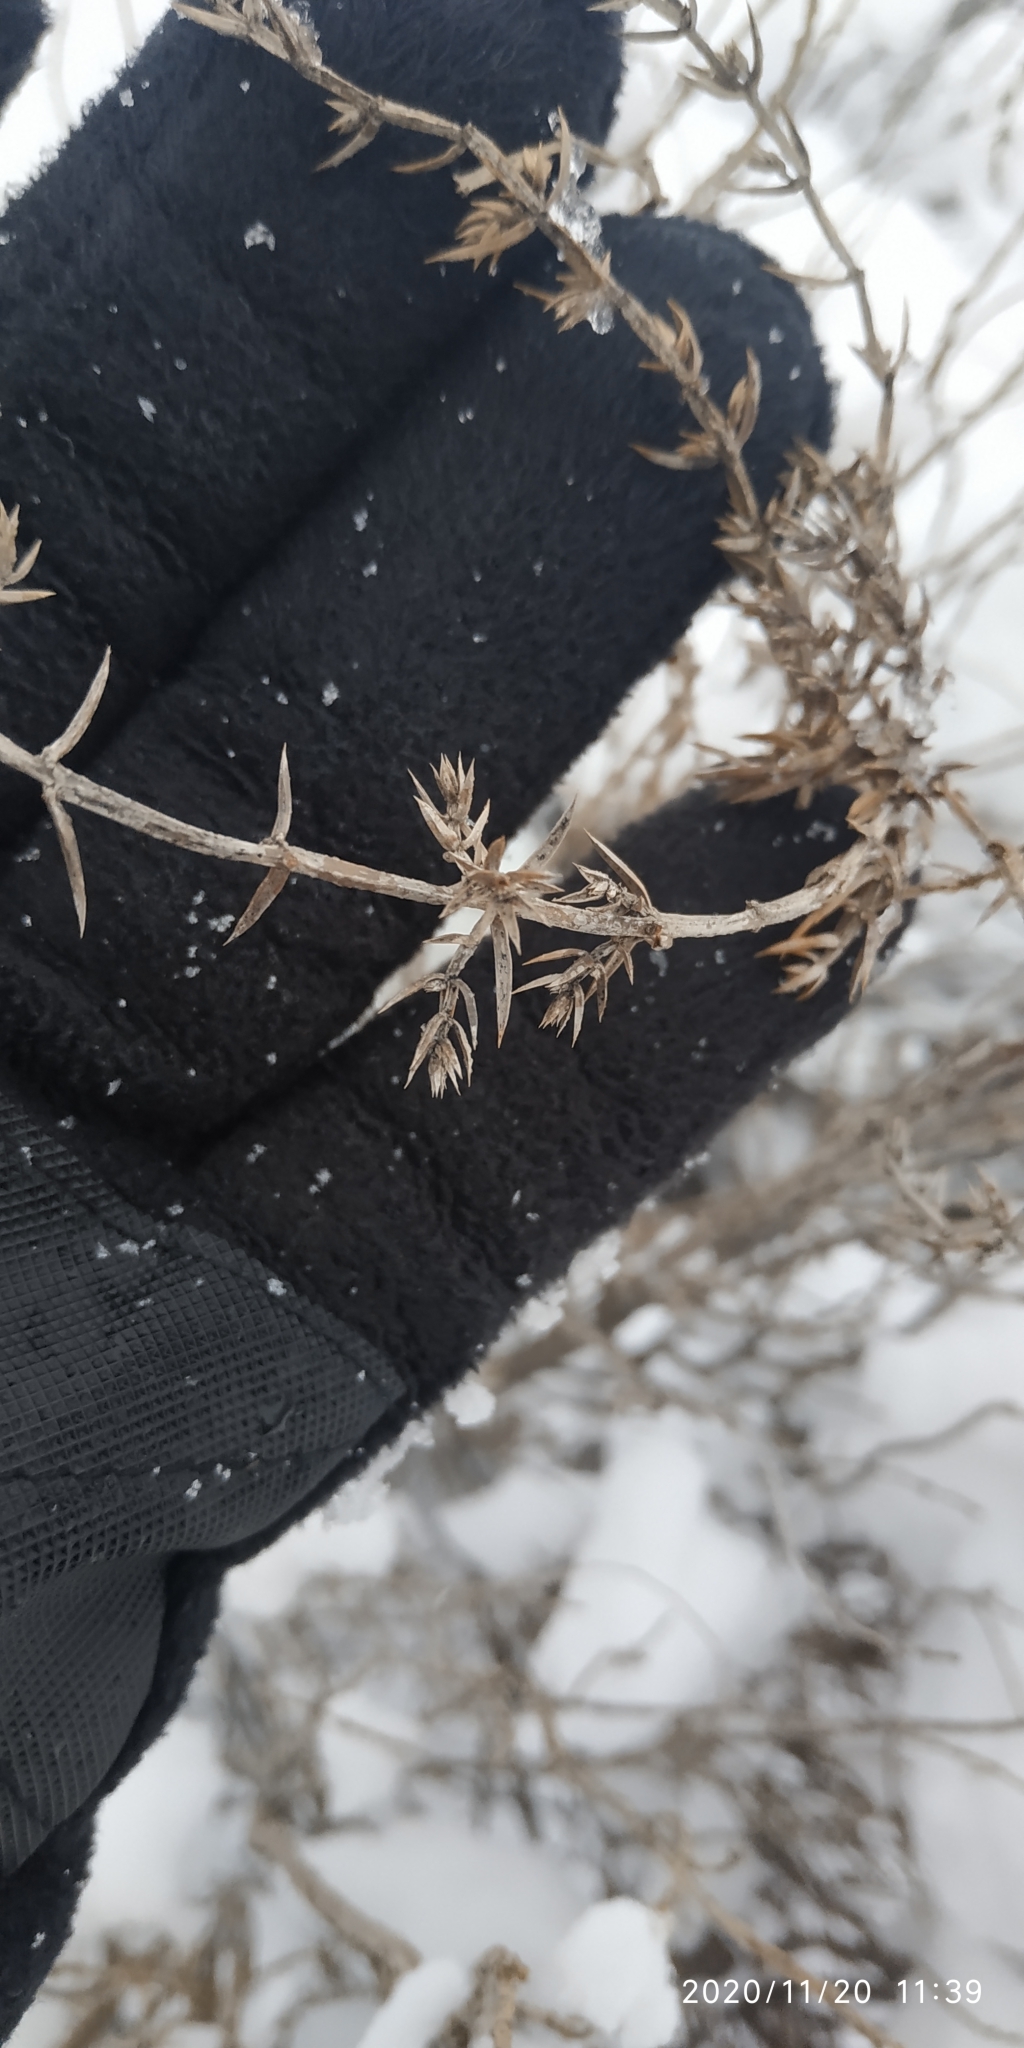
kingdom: Plantae
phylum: Tracheophyta
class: Pinopsida
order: Pinales
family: Cupressaceae
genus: Juniperus
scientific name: Juniperus communis
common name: Common juniper
